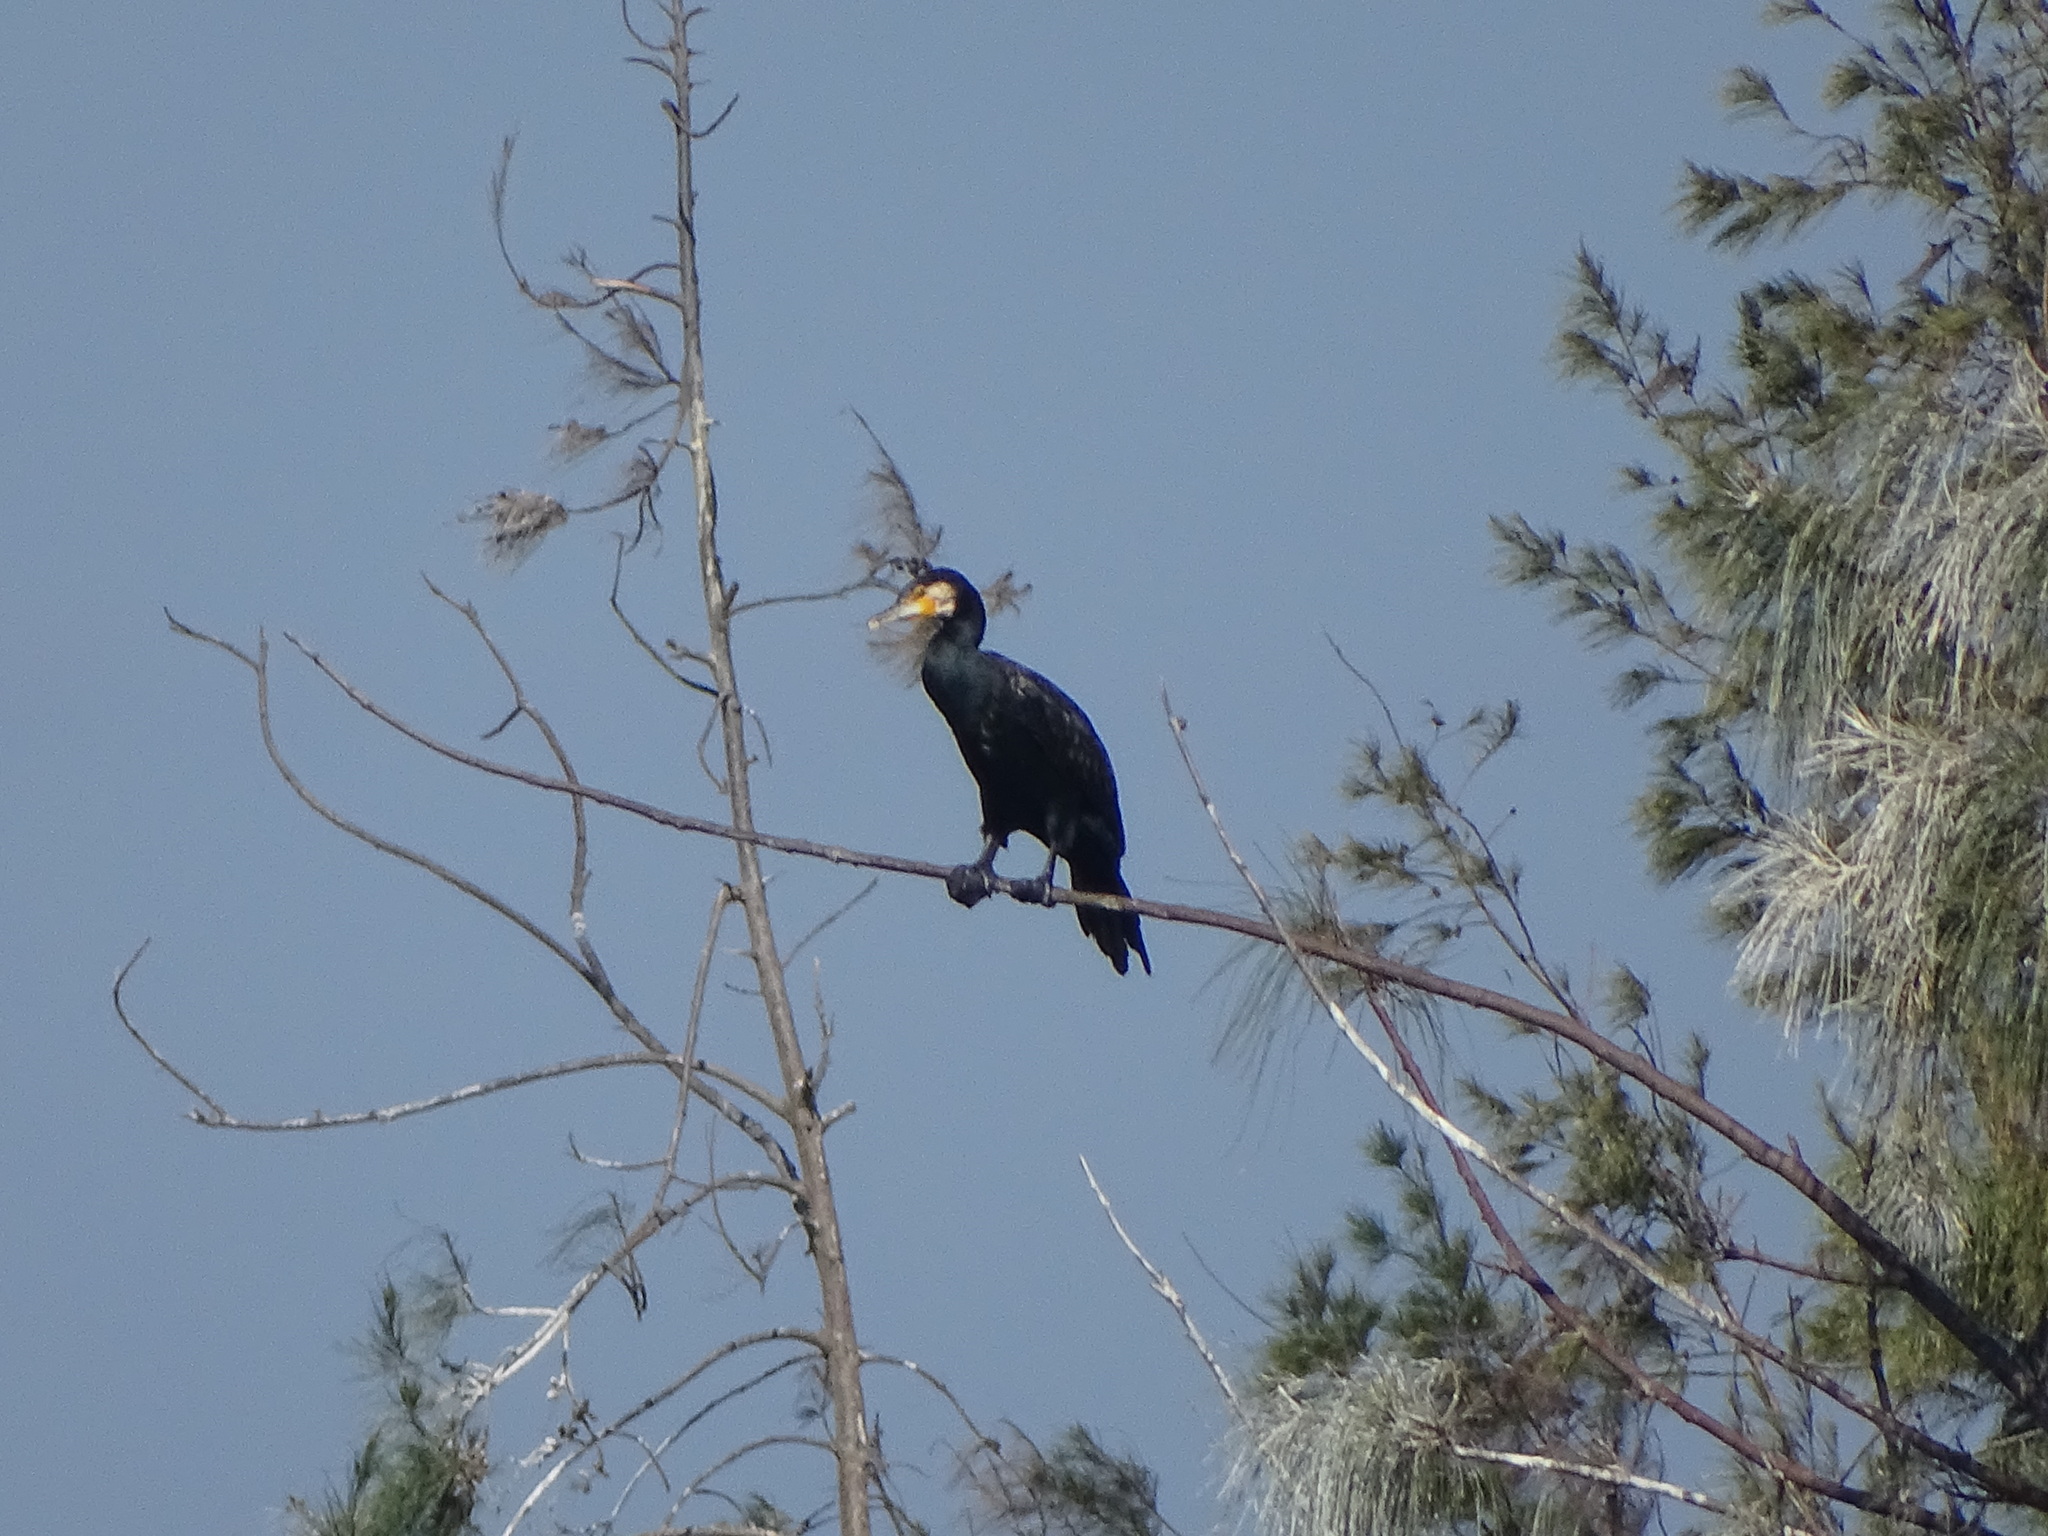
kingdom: Animalia
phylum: Chordata
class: Aves
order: Suliformes
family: Phalacrocoracidae
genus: Phalacrocorax
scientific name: Phalacrocorax carbo
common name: Great cormorant
